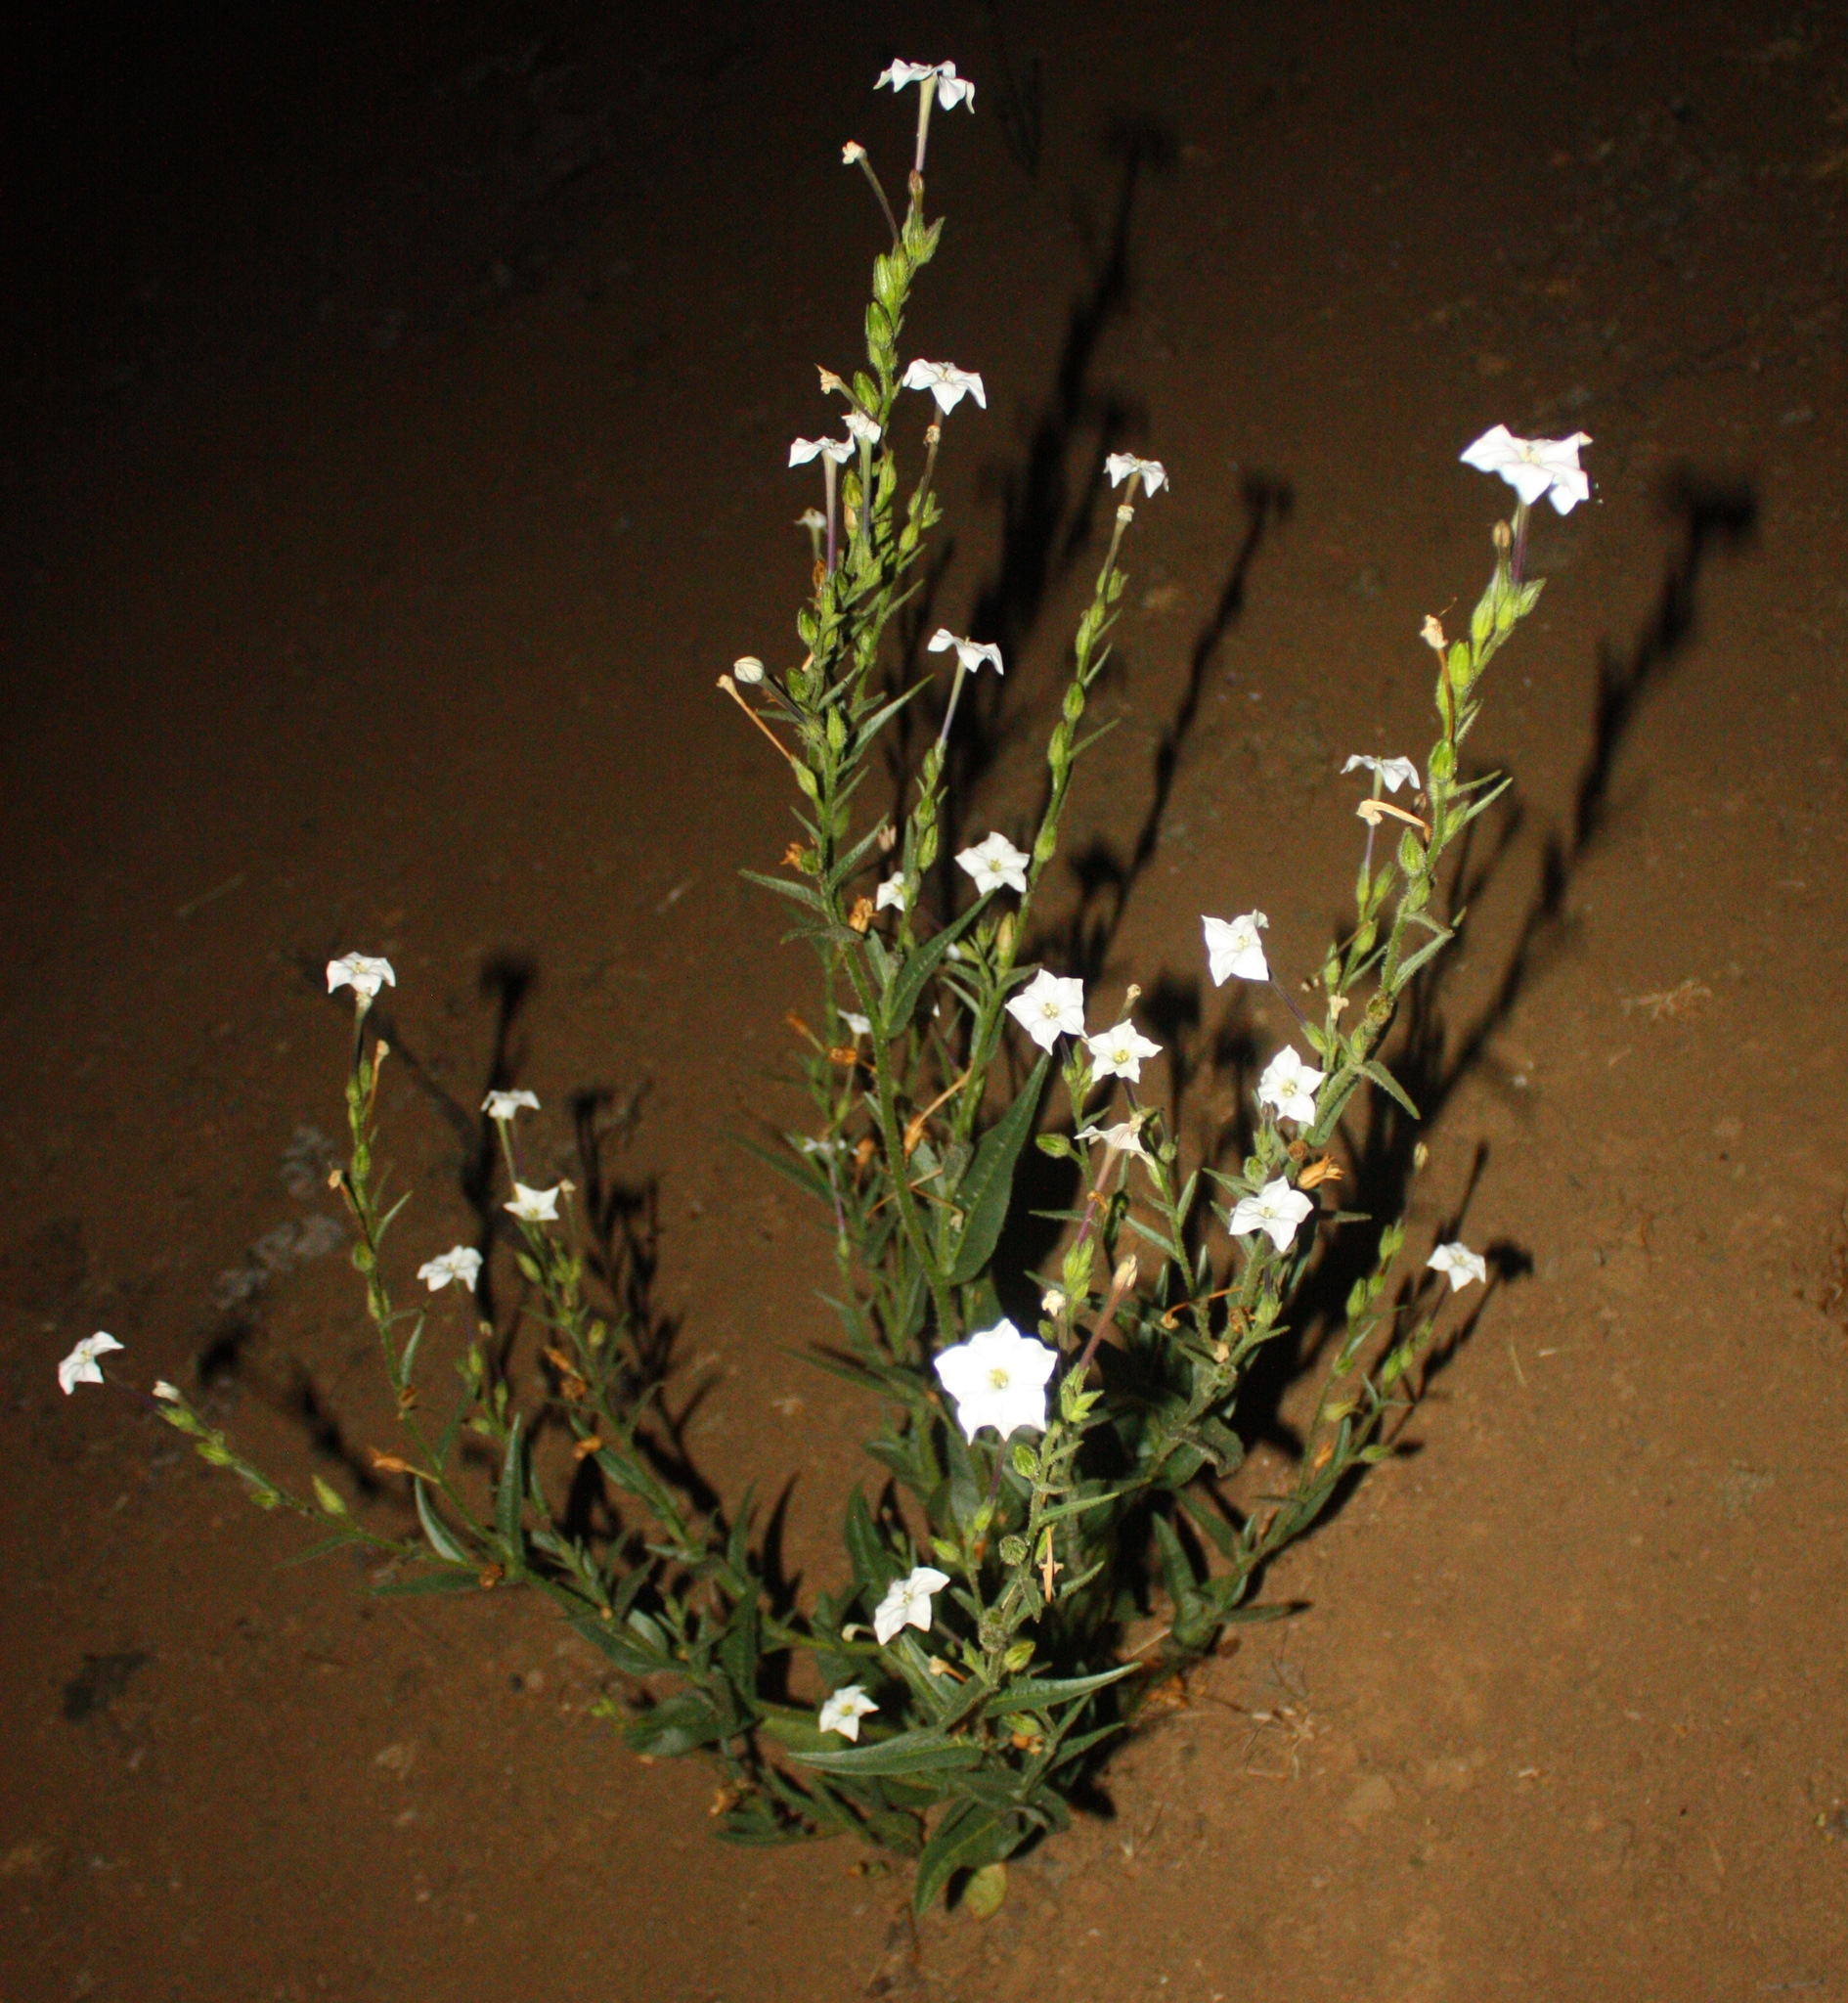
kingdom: Plantae
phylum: Tracheophyta
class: Magnoliopsida
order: Solanales
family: Solanaceae
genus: Nicotiana
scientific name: Nicotiana quadrivalvis
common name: Indian tobacco
